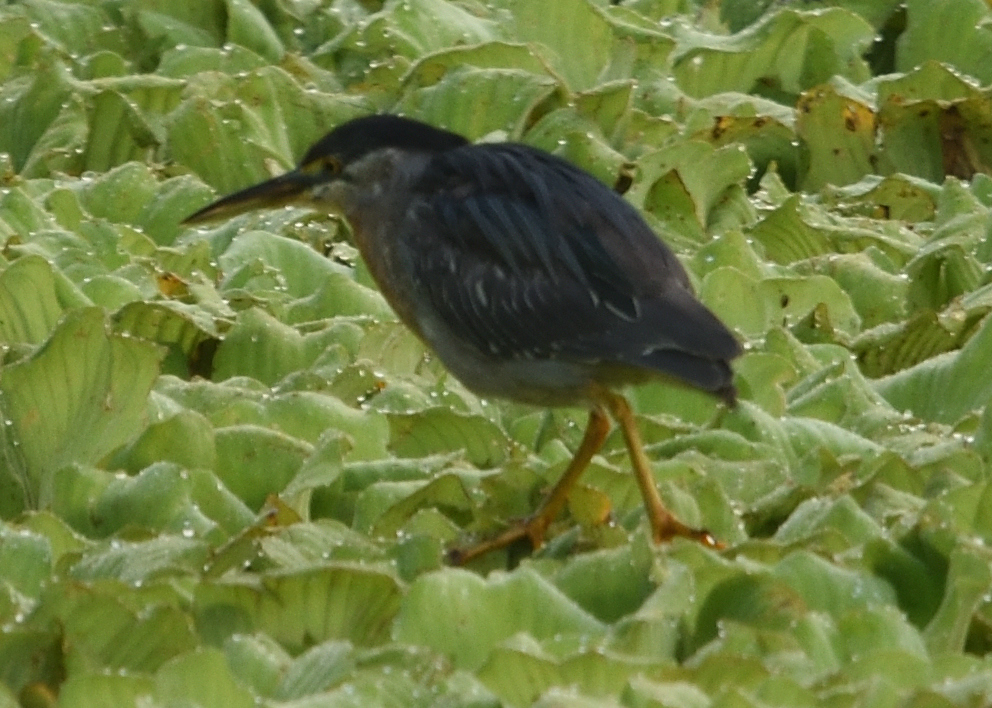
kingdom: Animalia
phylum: Chordata
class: Aves
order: Pelecaniformes
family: Ardeidae
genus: Butorides
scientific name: Butorides striata
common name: Striated heron
